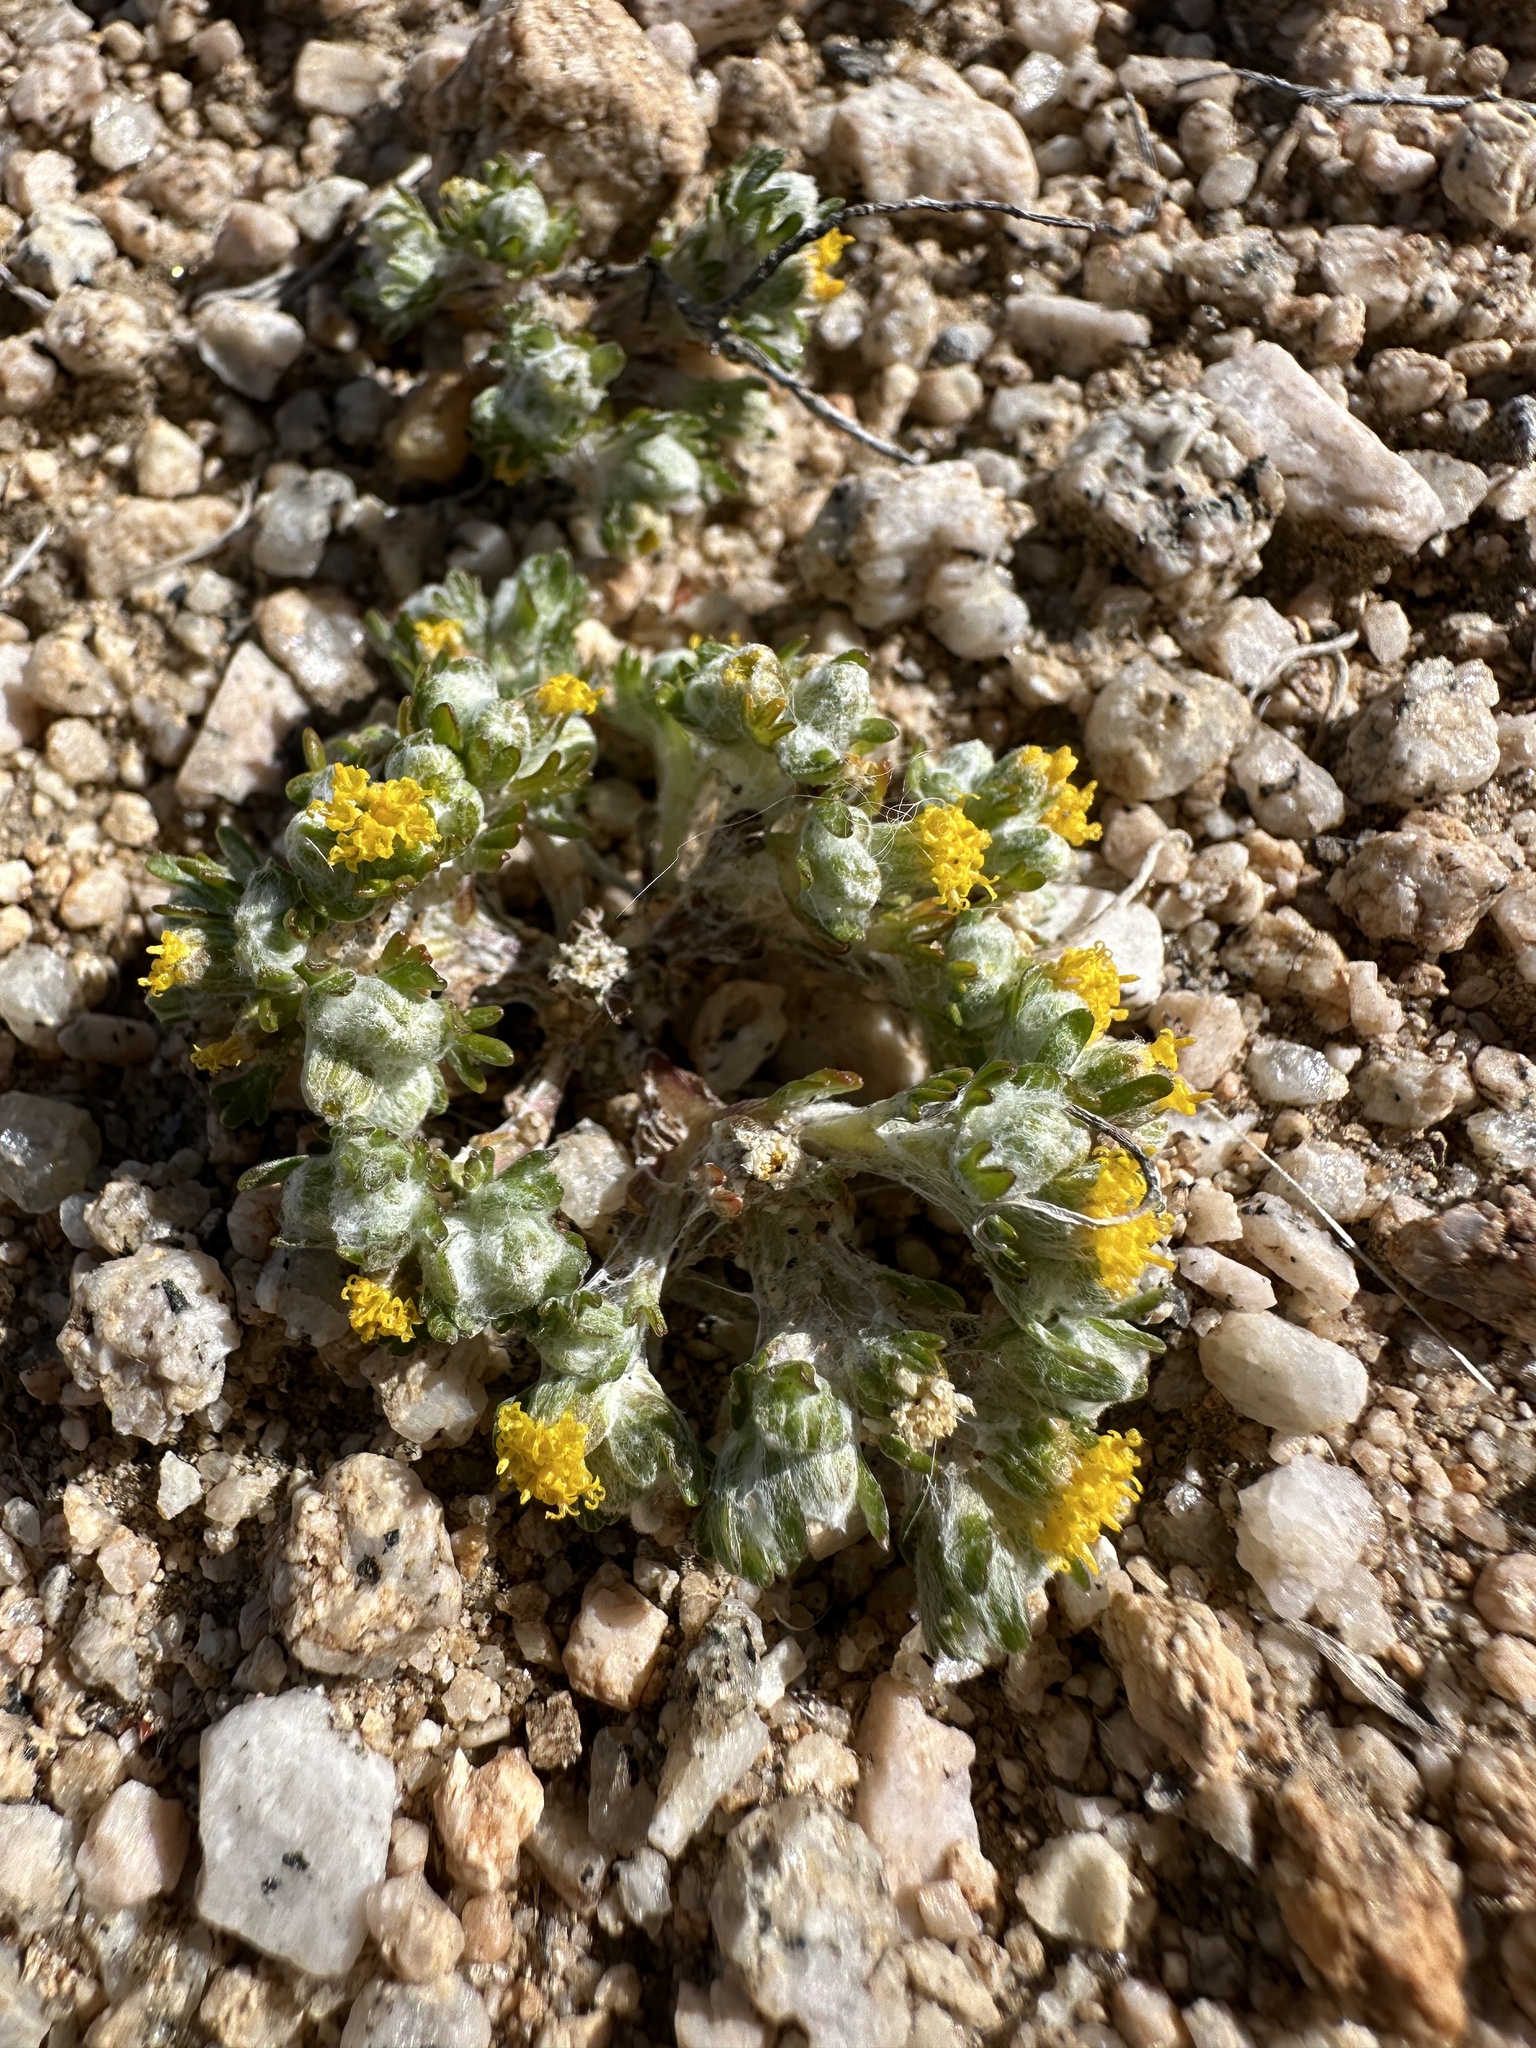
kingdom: Plantae
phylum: Tracheophyta
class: Magnoliopsida
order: Asterales
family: Asteraceae
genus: Eriophyllum
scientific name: Eriophyllum pringlei
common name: Pringle's woolly-sunflower
